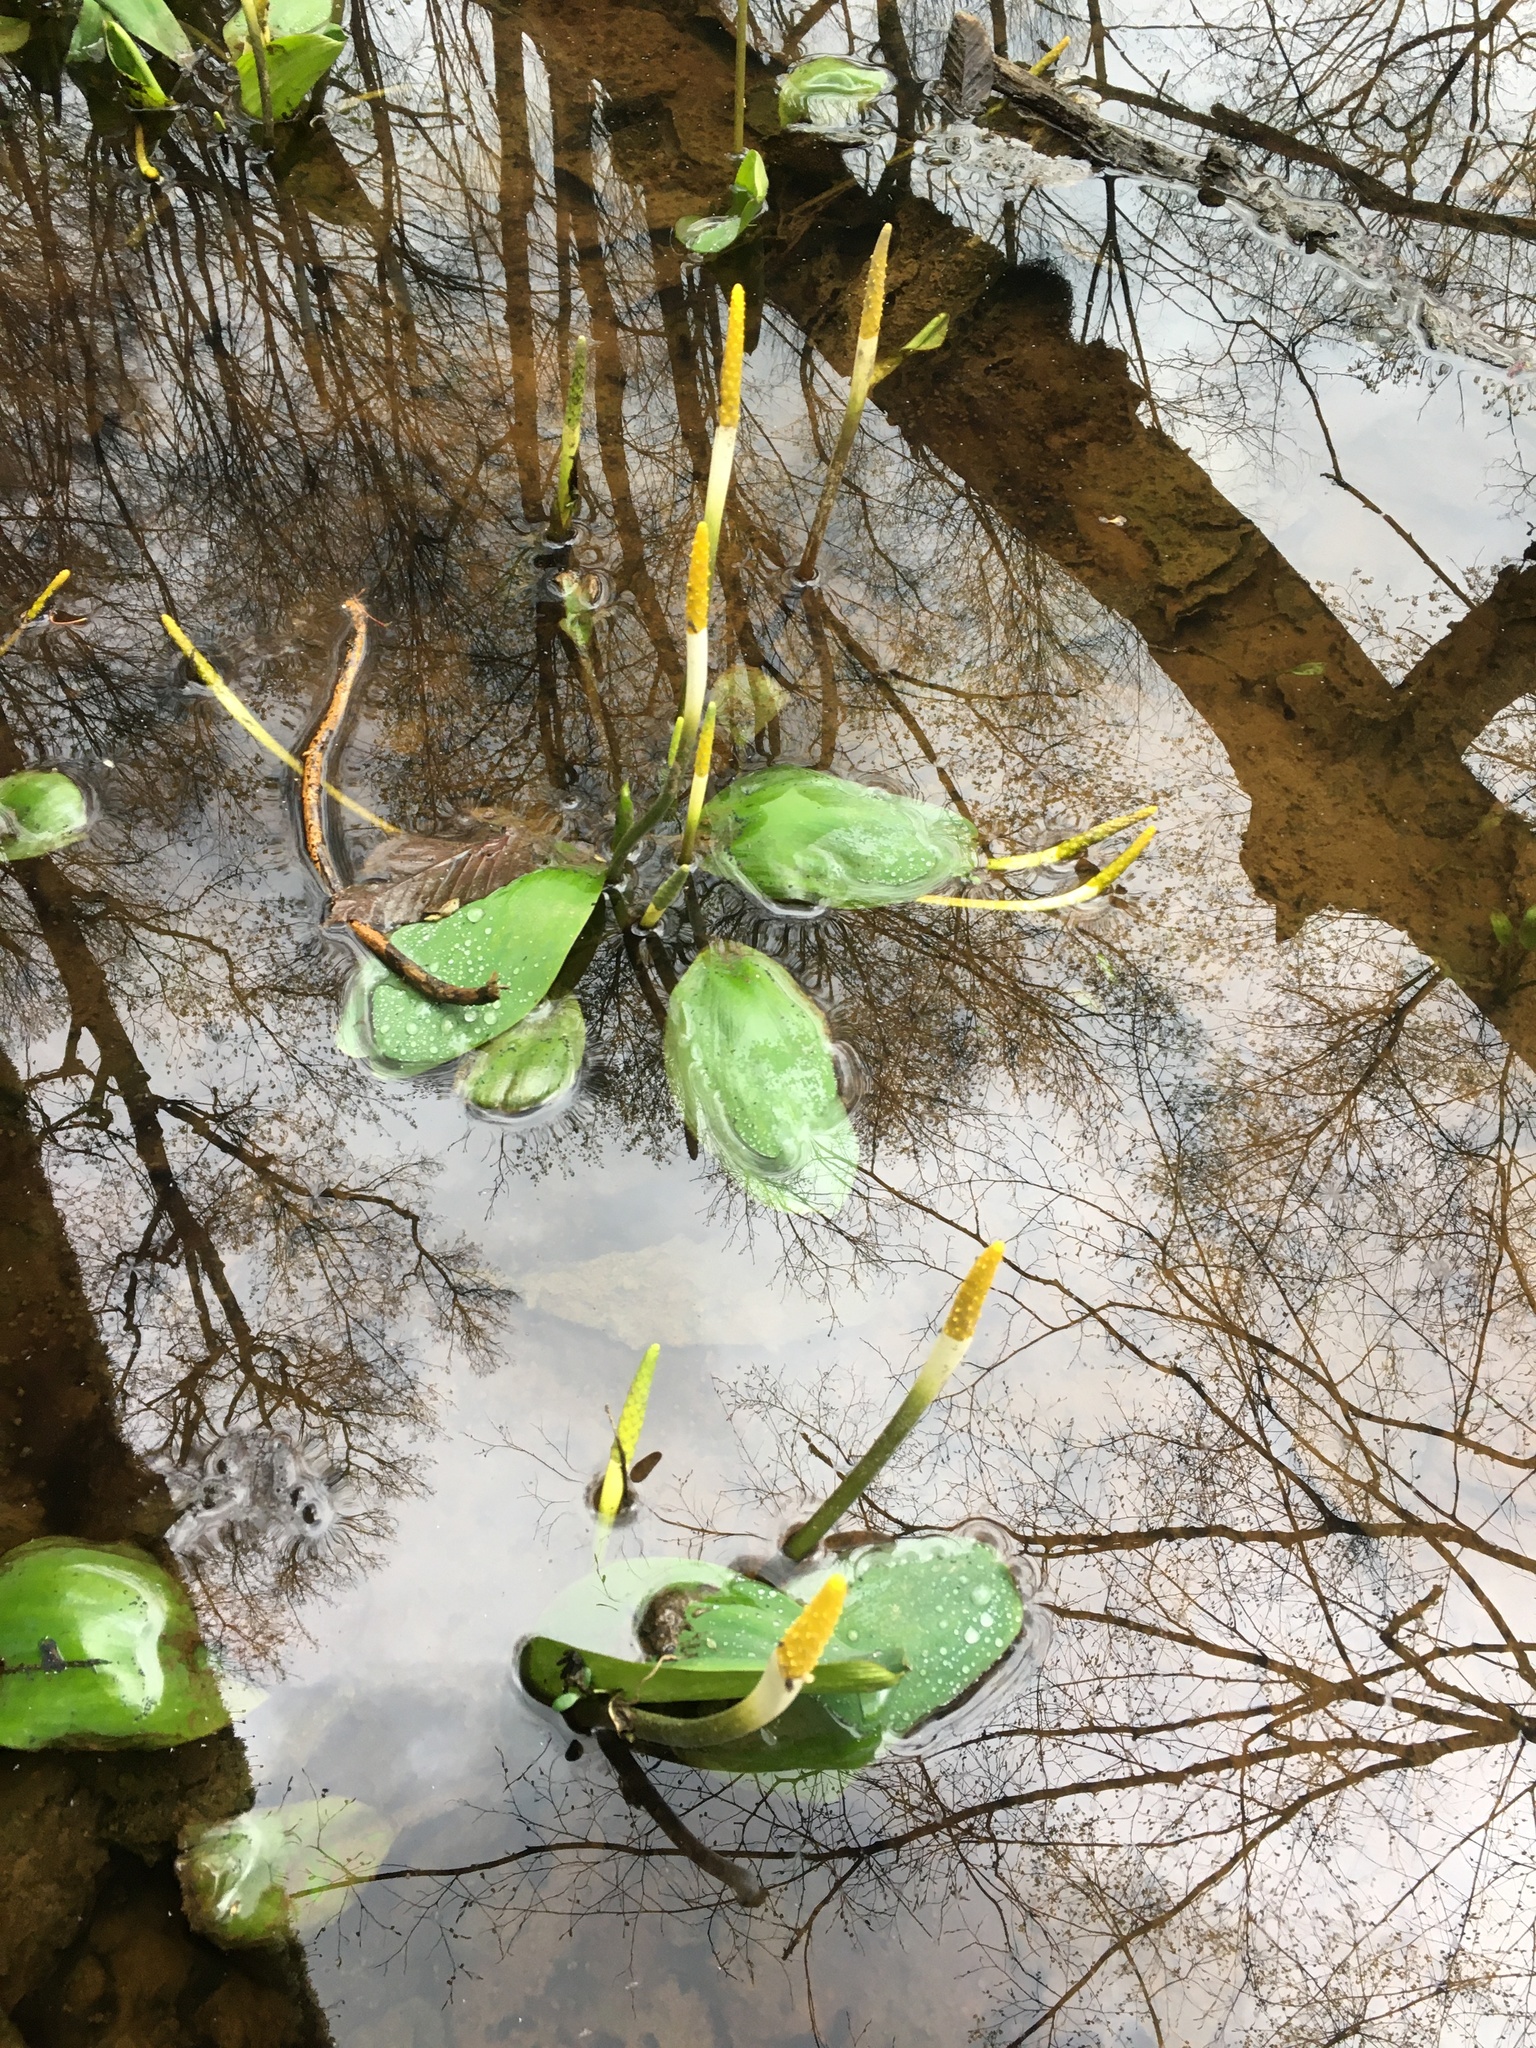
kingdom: Plantae
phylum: Tracheophyta
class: Liliopsida
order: Alismatales
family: Araceae
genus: Orontium
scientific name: Orontium aquaticum
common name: Golden-club
